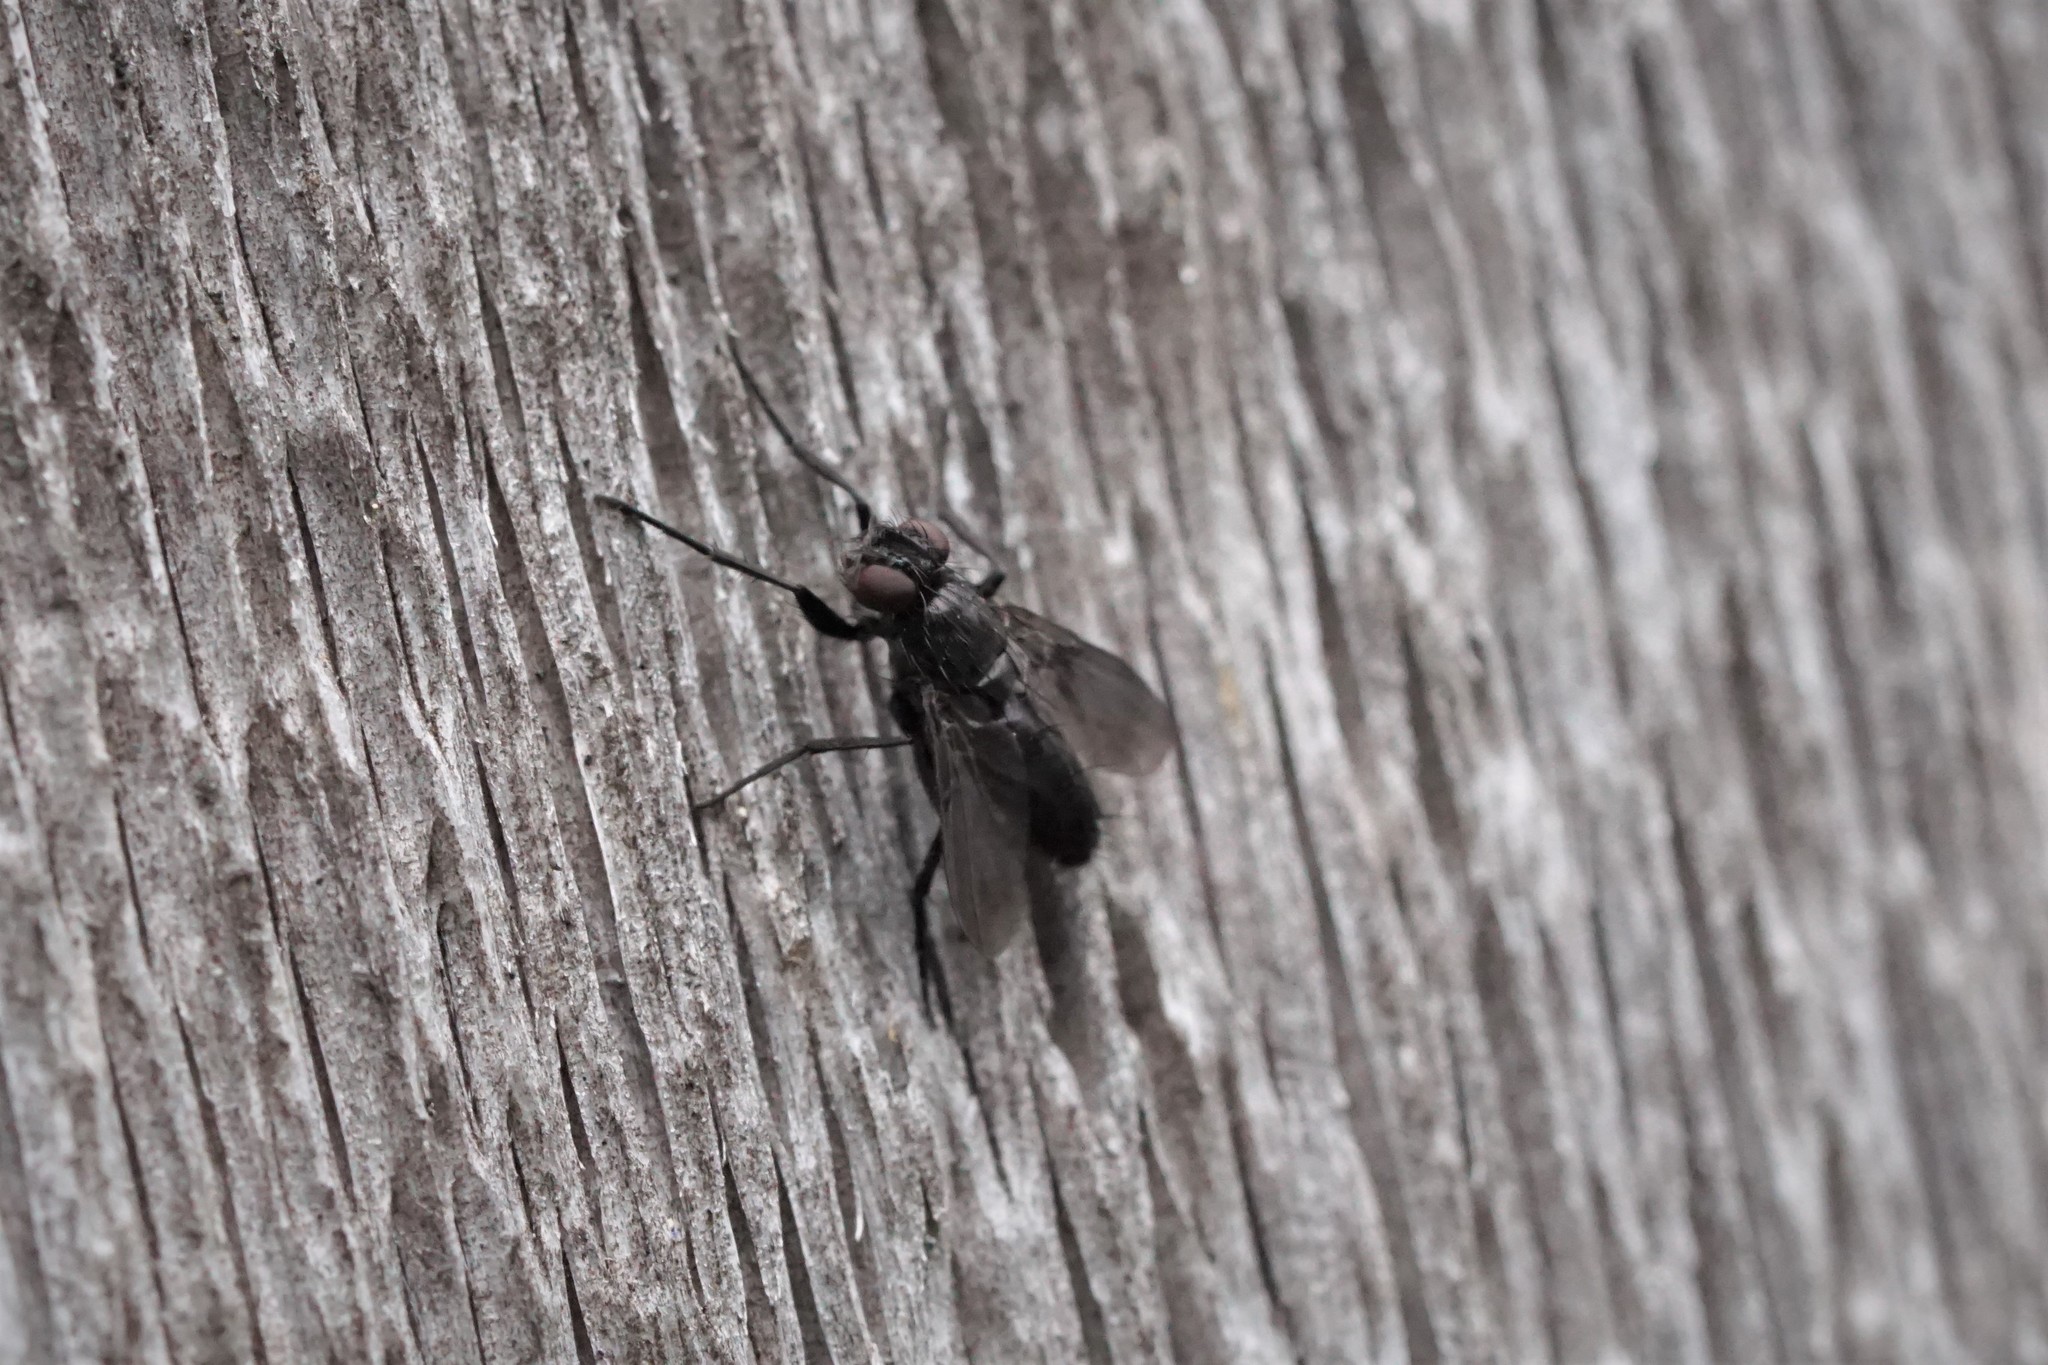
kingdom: Animalia
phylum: Arthropoda
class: Insecta
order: Diptera
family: Calliphoridae
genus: Melanophora
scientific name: Melanophora roralis
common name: Smoky-winged woodlouse-fly
